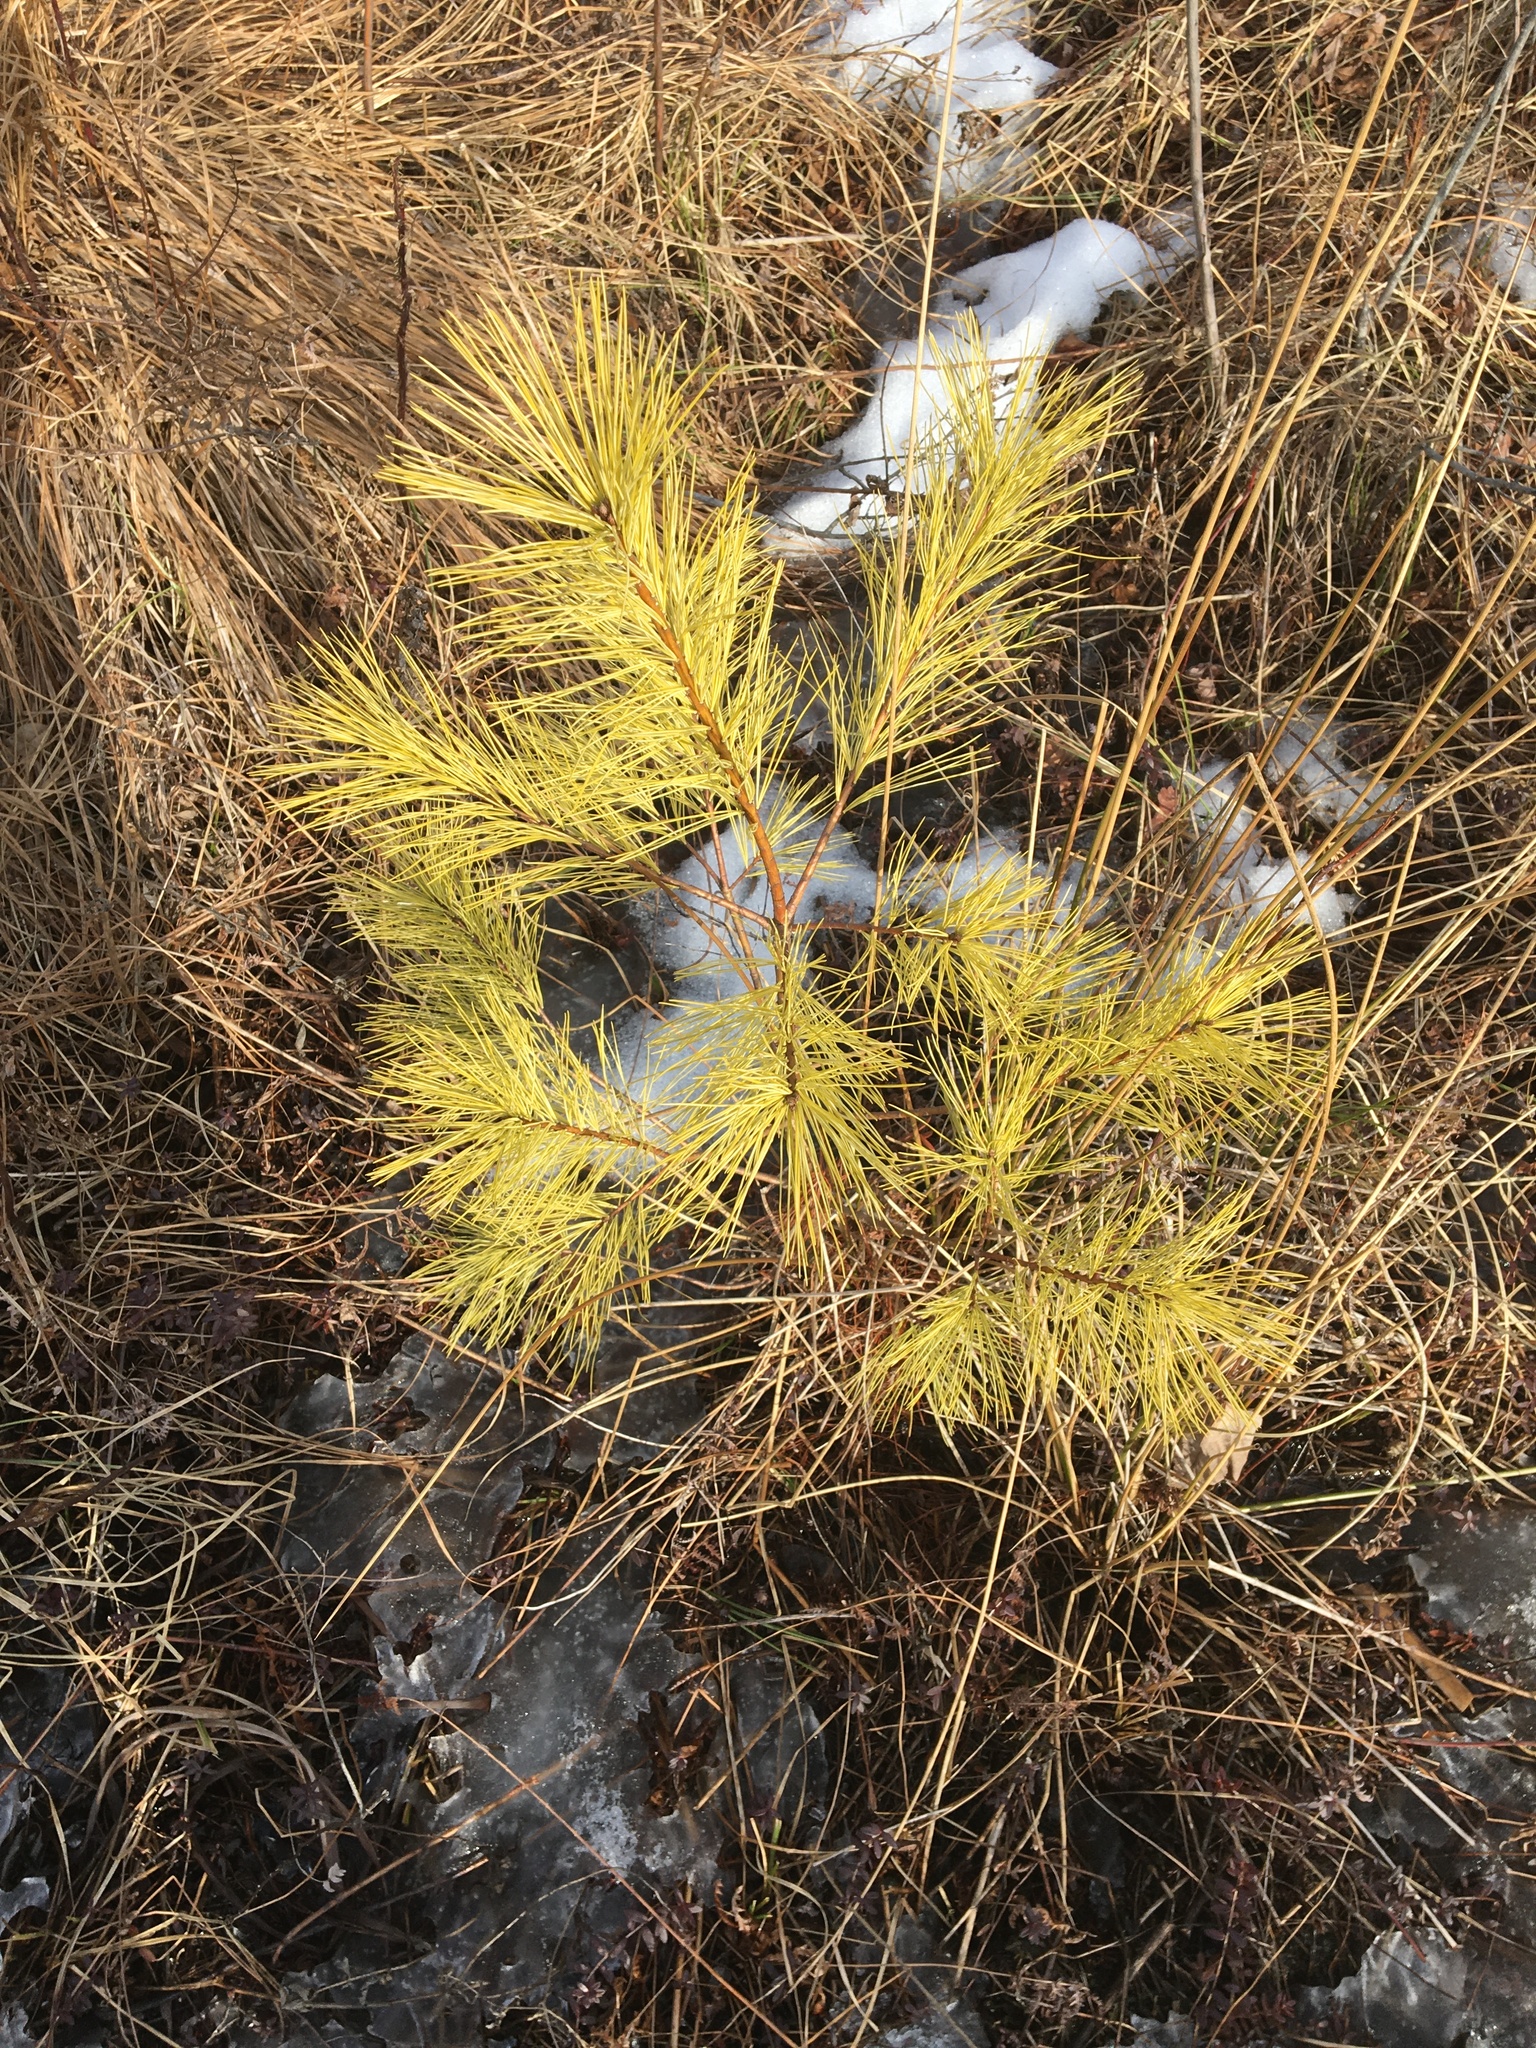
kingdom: Plantae
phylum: Tracheophyta
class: Pinopsida
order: Pinales
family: Pinaceae
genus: Pinus
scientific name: Pinus strobus
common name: Weymouth pine
